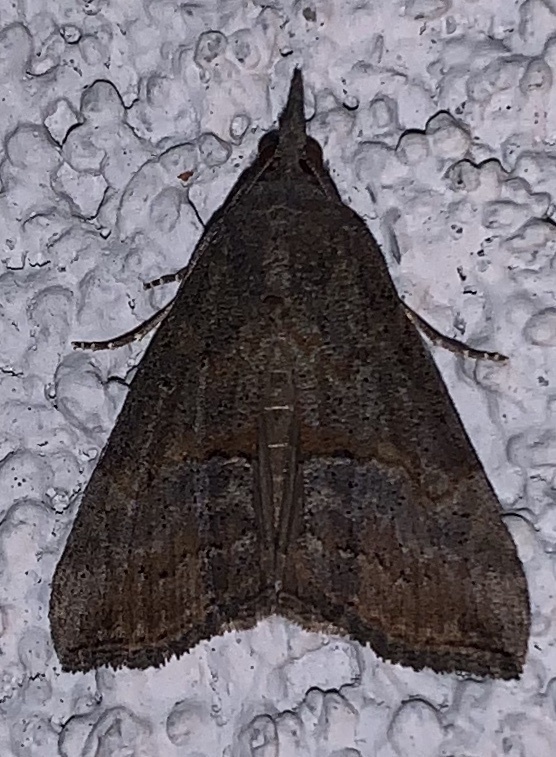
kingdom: Animalia
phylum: Arthropoda
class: Insecta
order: Lepidoptera
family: Erebidae
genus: Hypena
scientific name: Hypena scabra
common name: Green cloverworm
